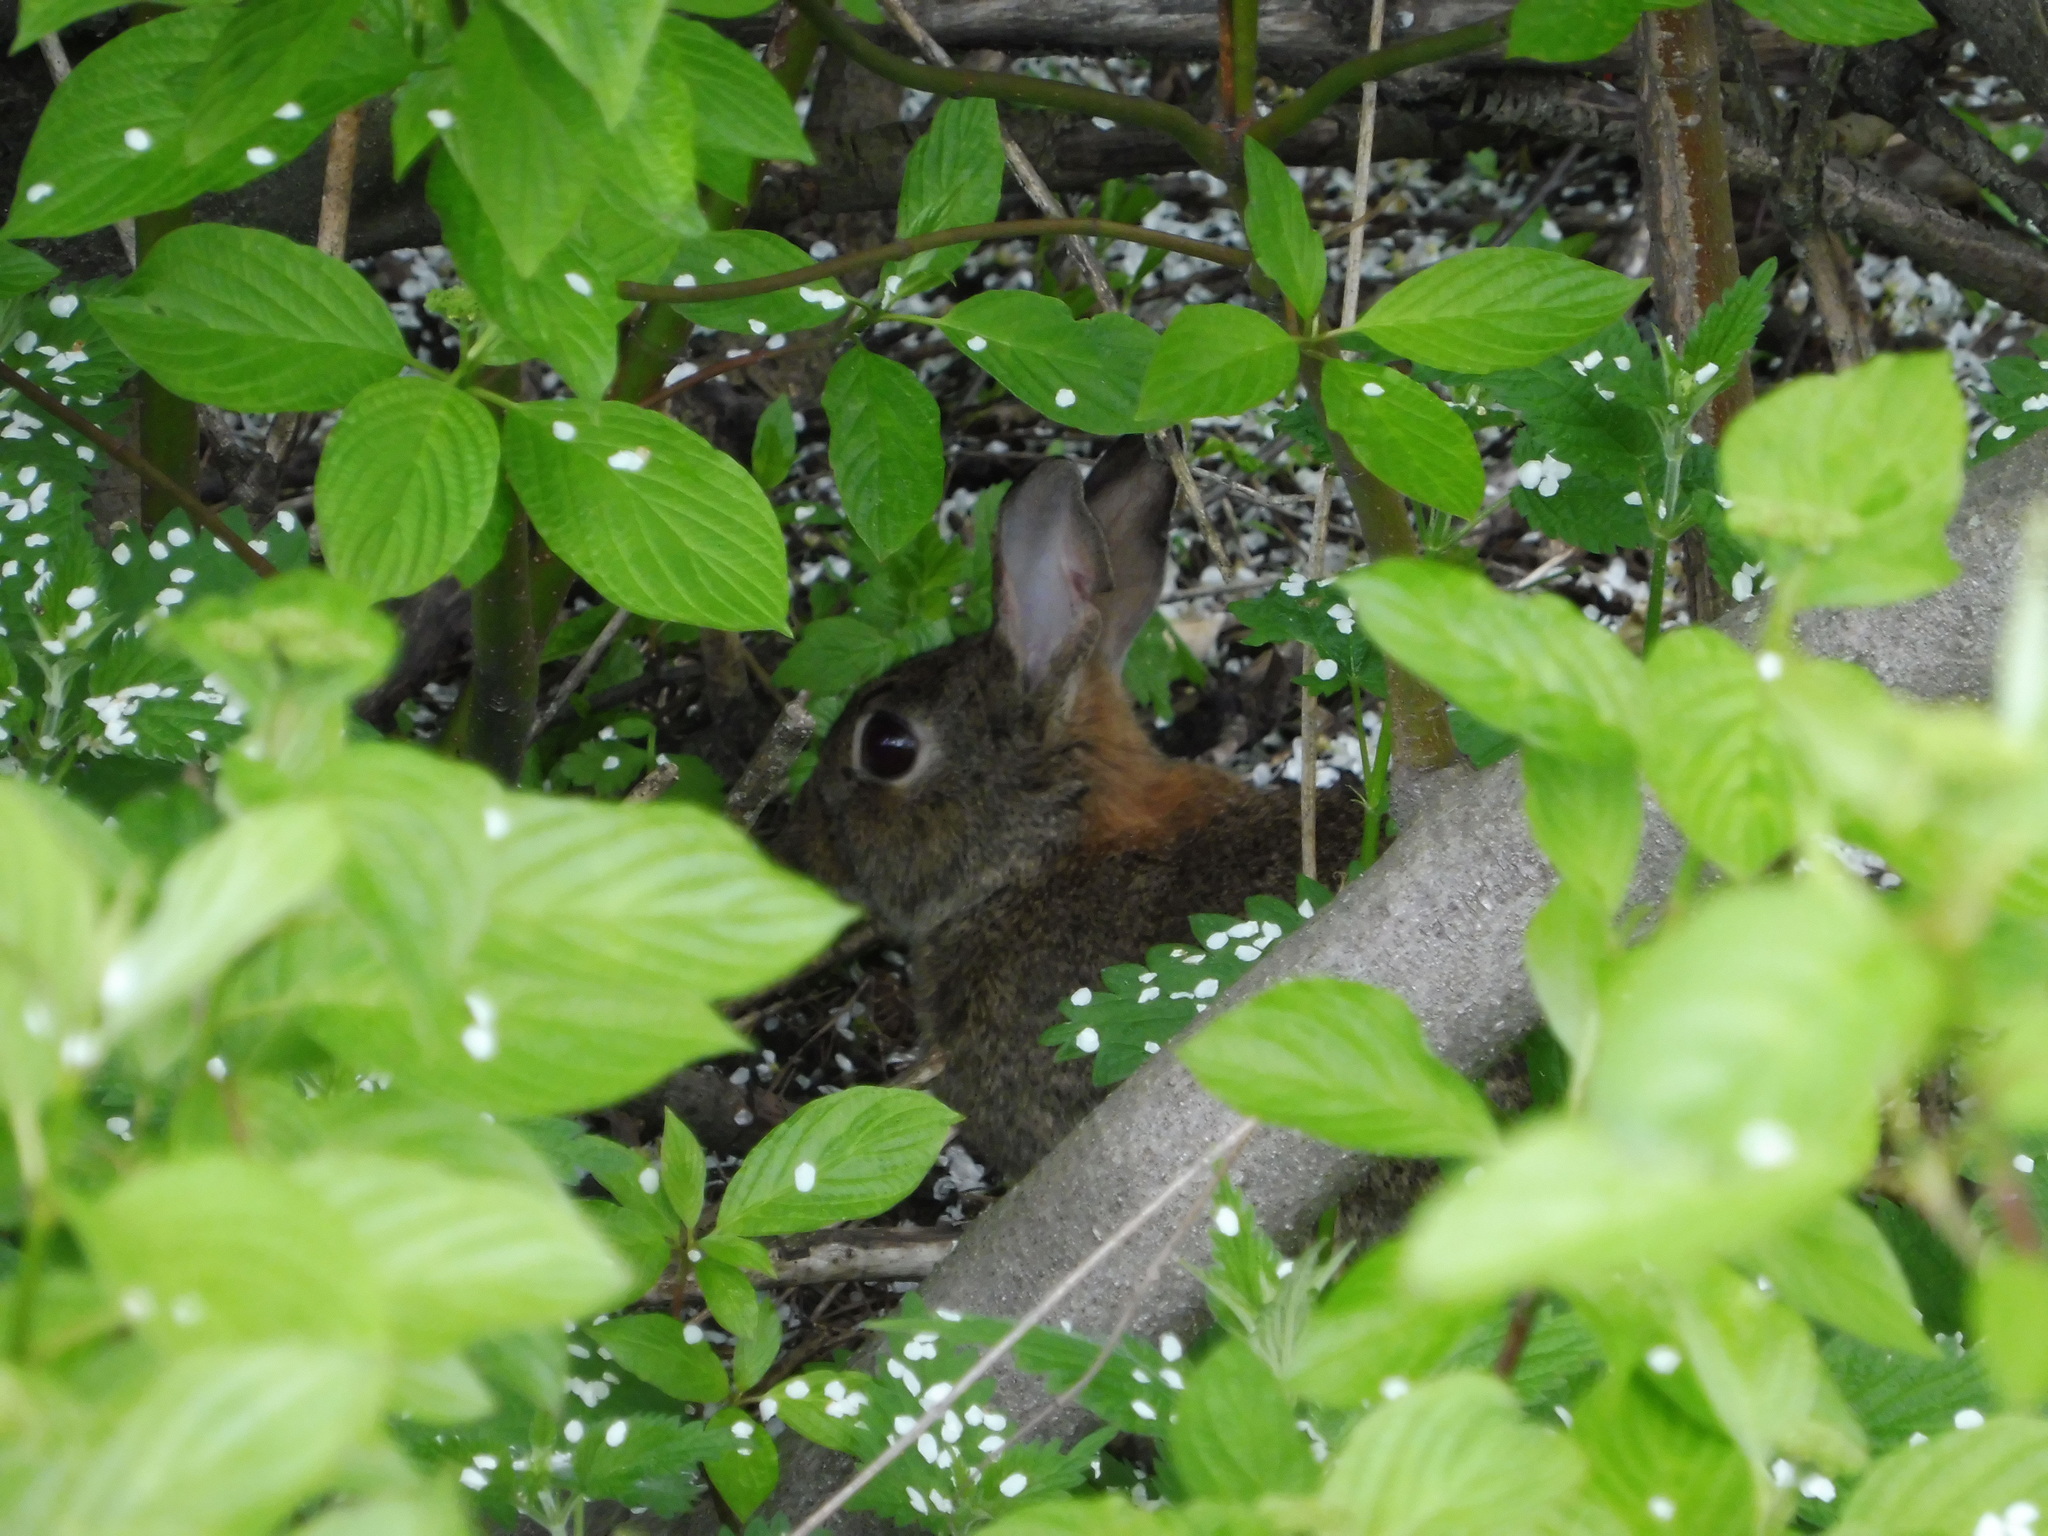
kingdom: Animalia
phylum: Chordata
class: Mammalia
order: Lagomorpha
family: Leporidae
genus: Oryctolagus
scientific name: Oryctolagus cuniculus
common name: European rabbit
